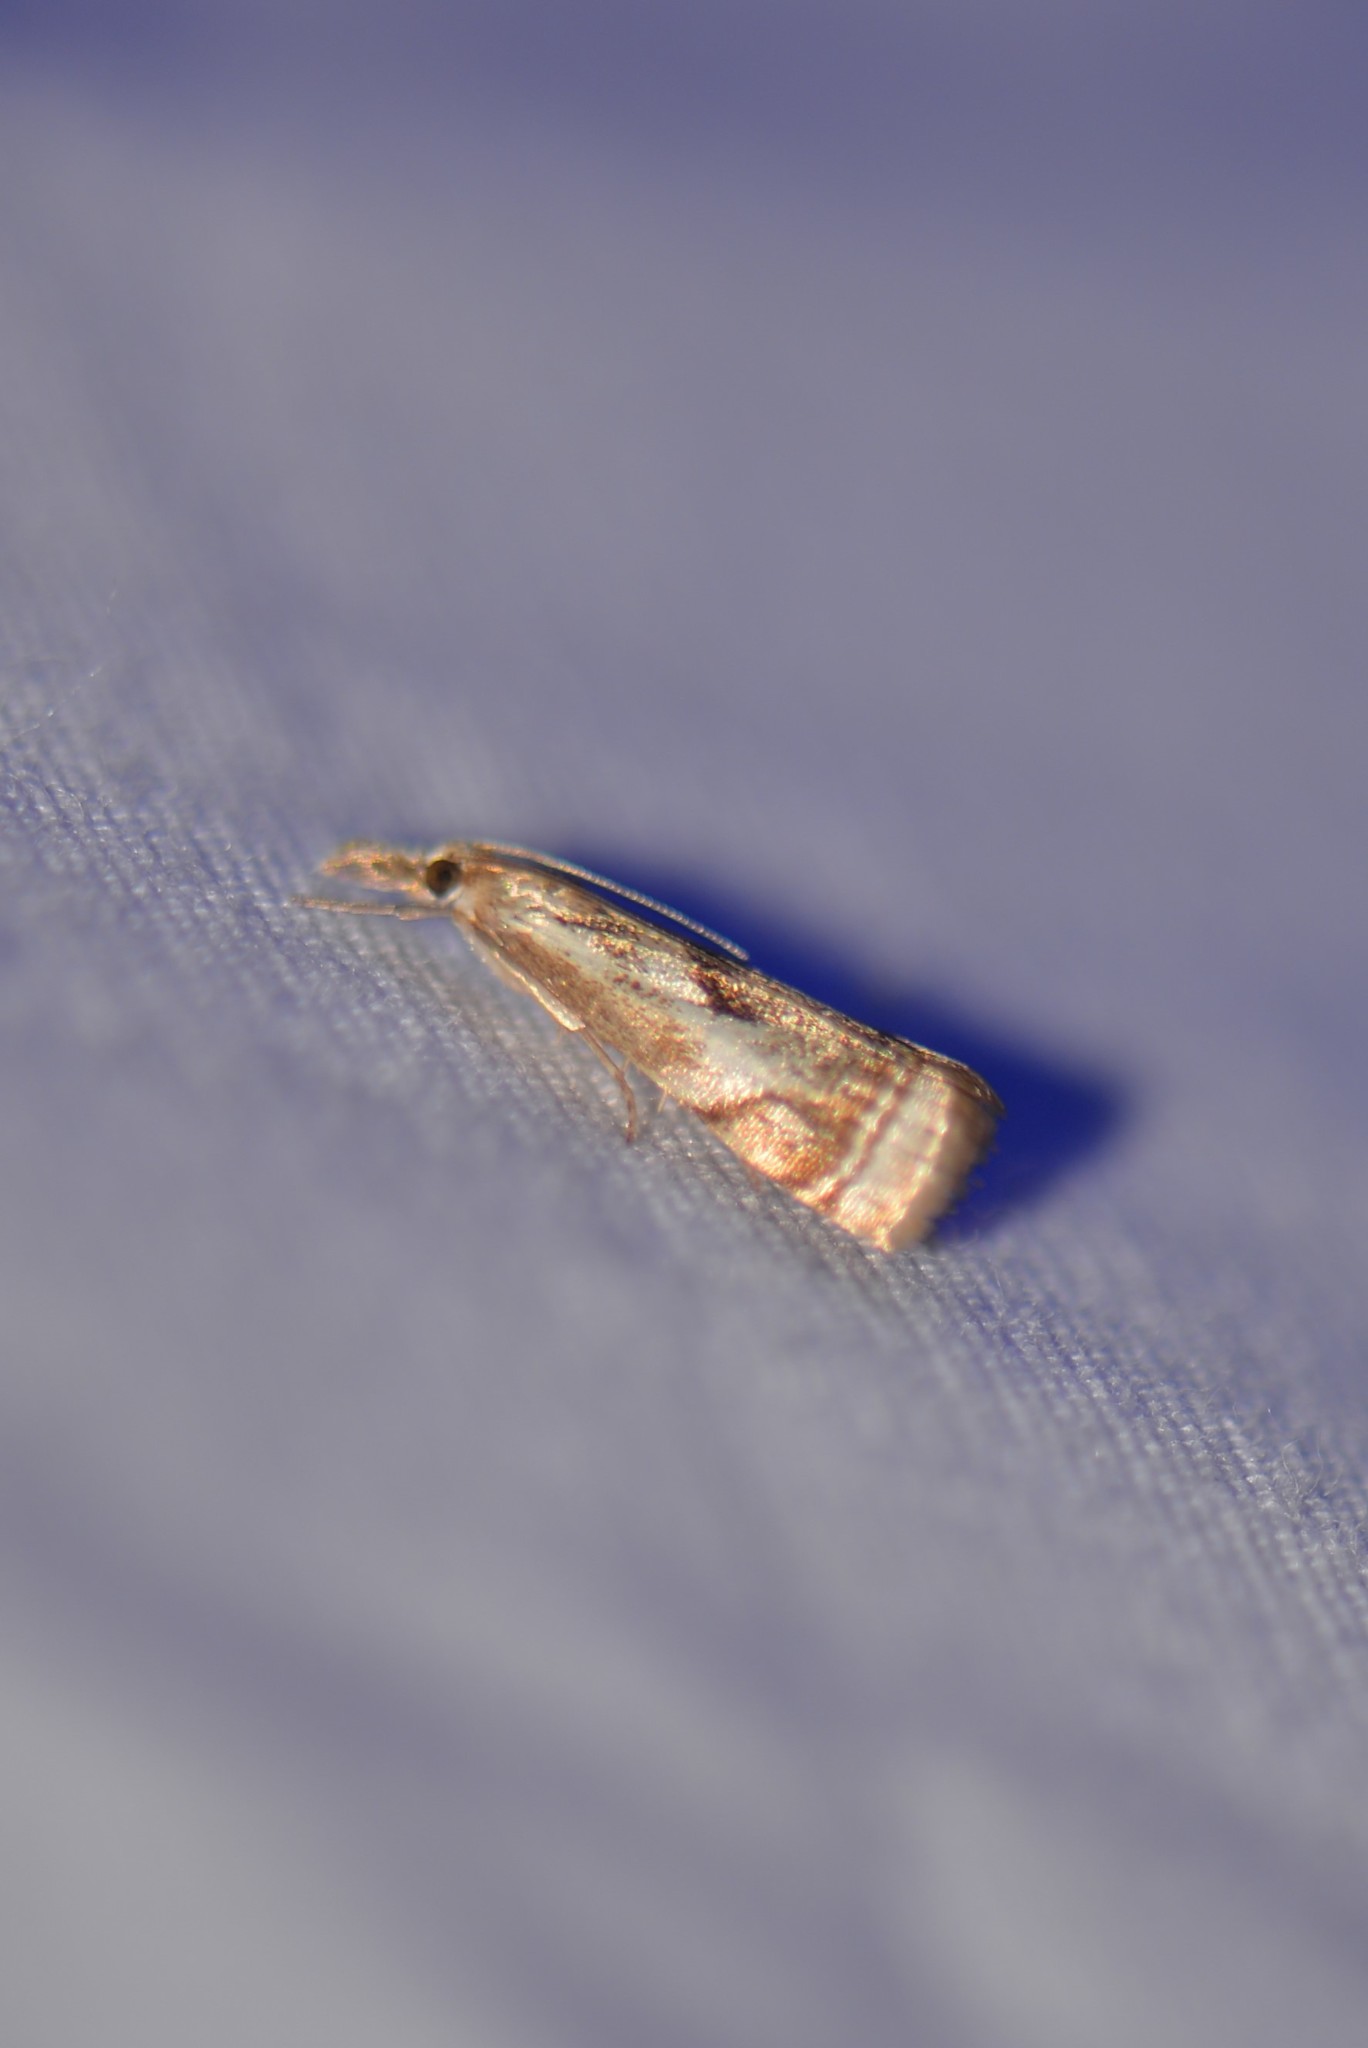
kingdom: Animalia
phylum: Arthropoda
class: Insecta
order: Lepidoptera
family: Crambidae
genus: Microcrambus
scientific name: Microcrambus elegans
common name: Elegant grass-veneer
